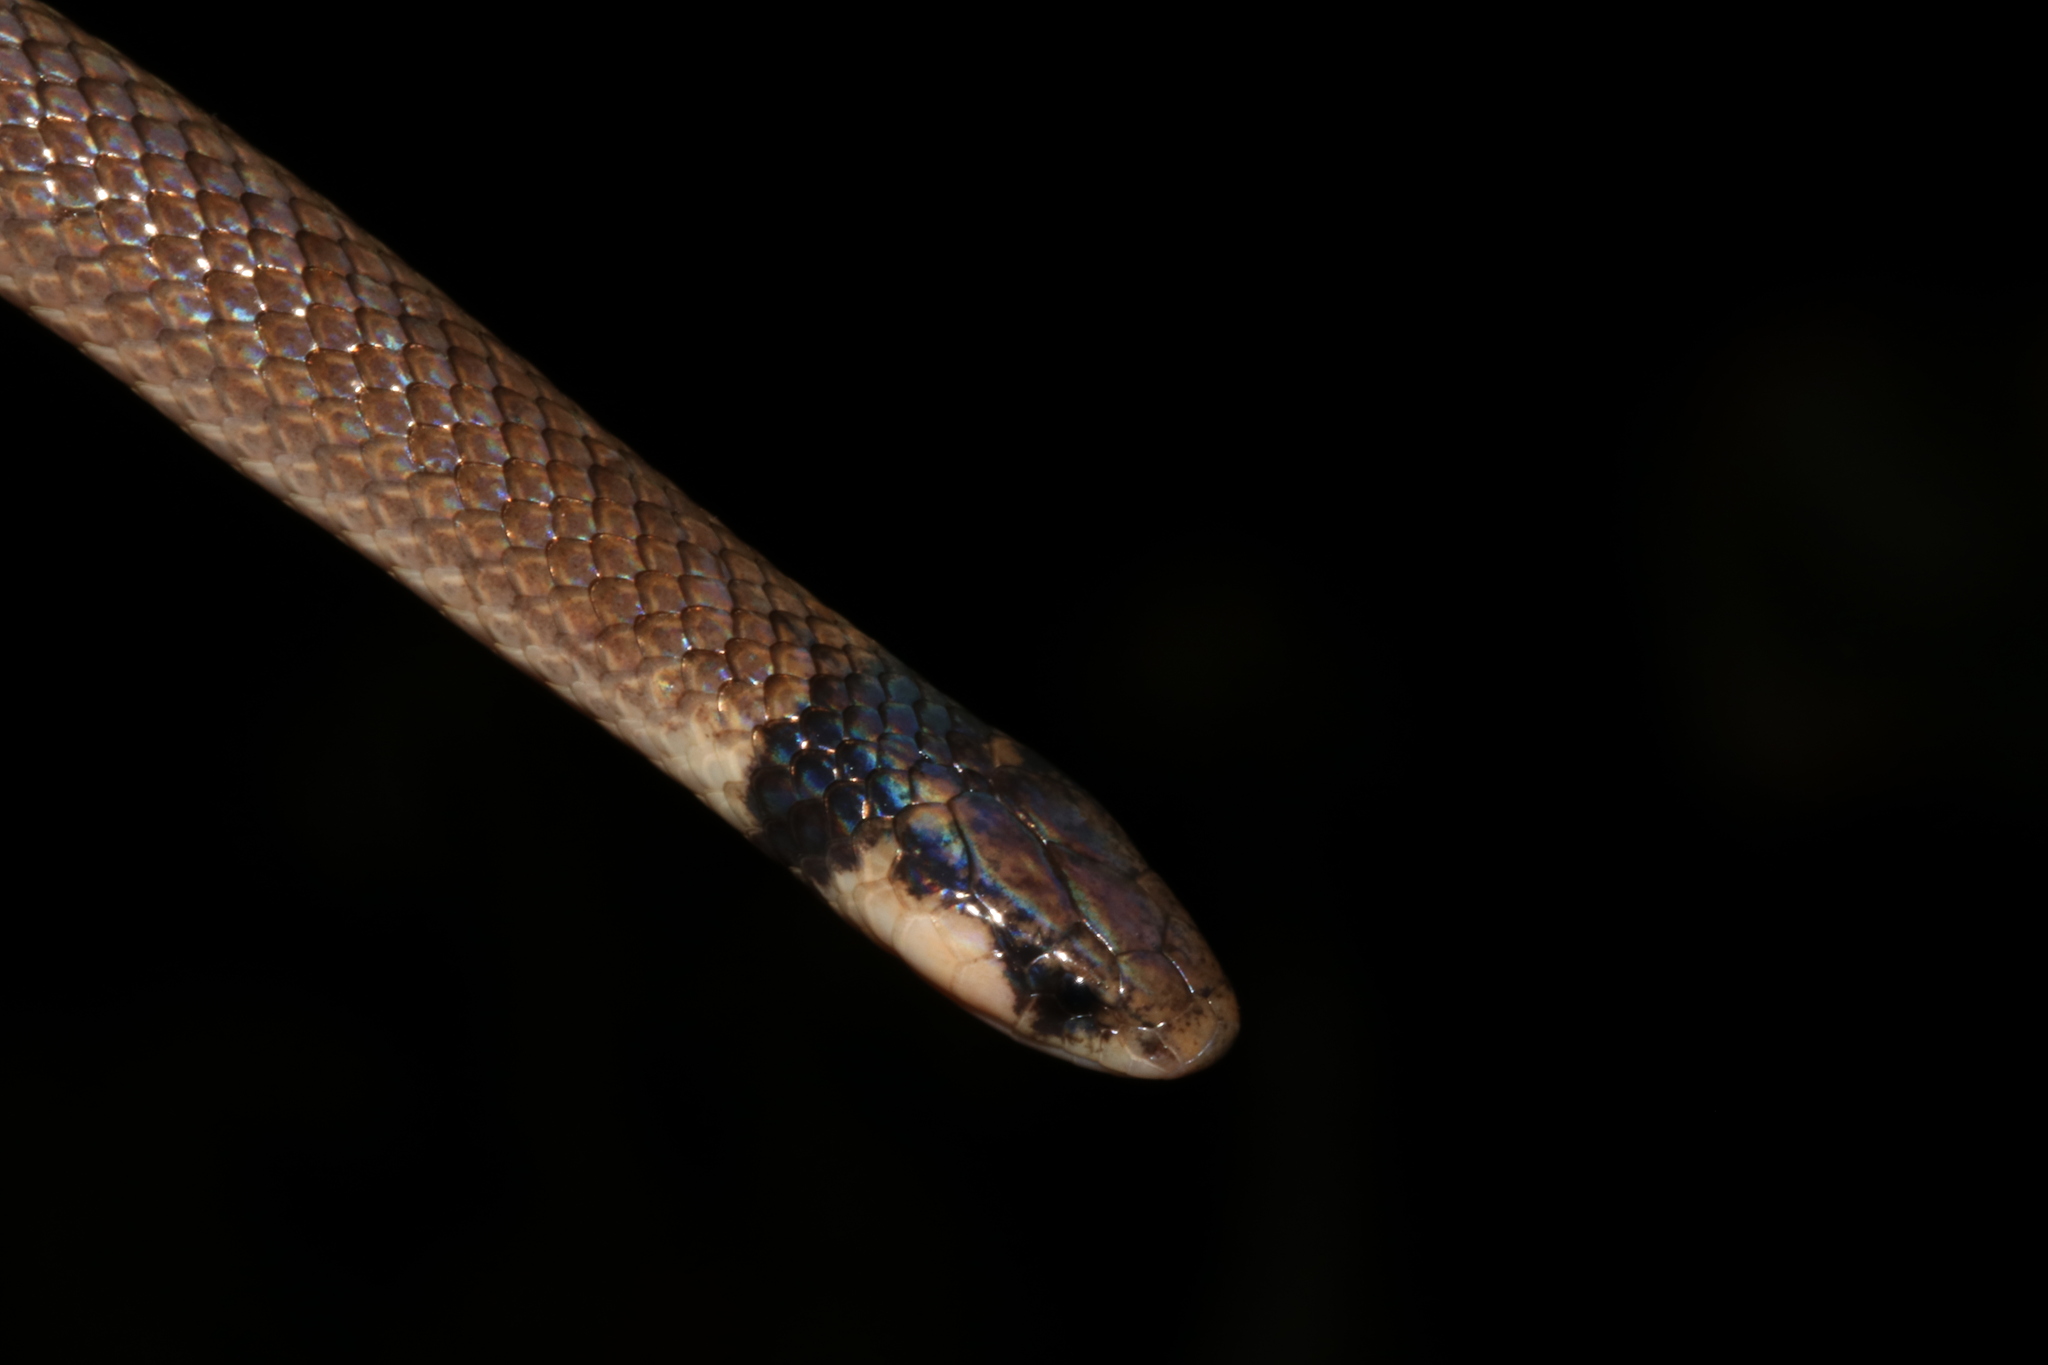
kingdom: Animalia
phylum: Chordata
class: Squamata
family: Atractaspididae
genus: Aparallactus
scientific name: Aparallactus capensis
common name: Cape centipede eater
